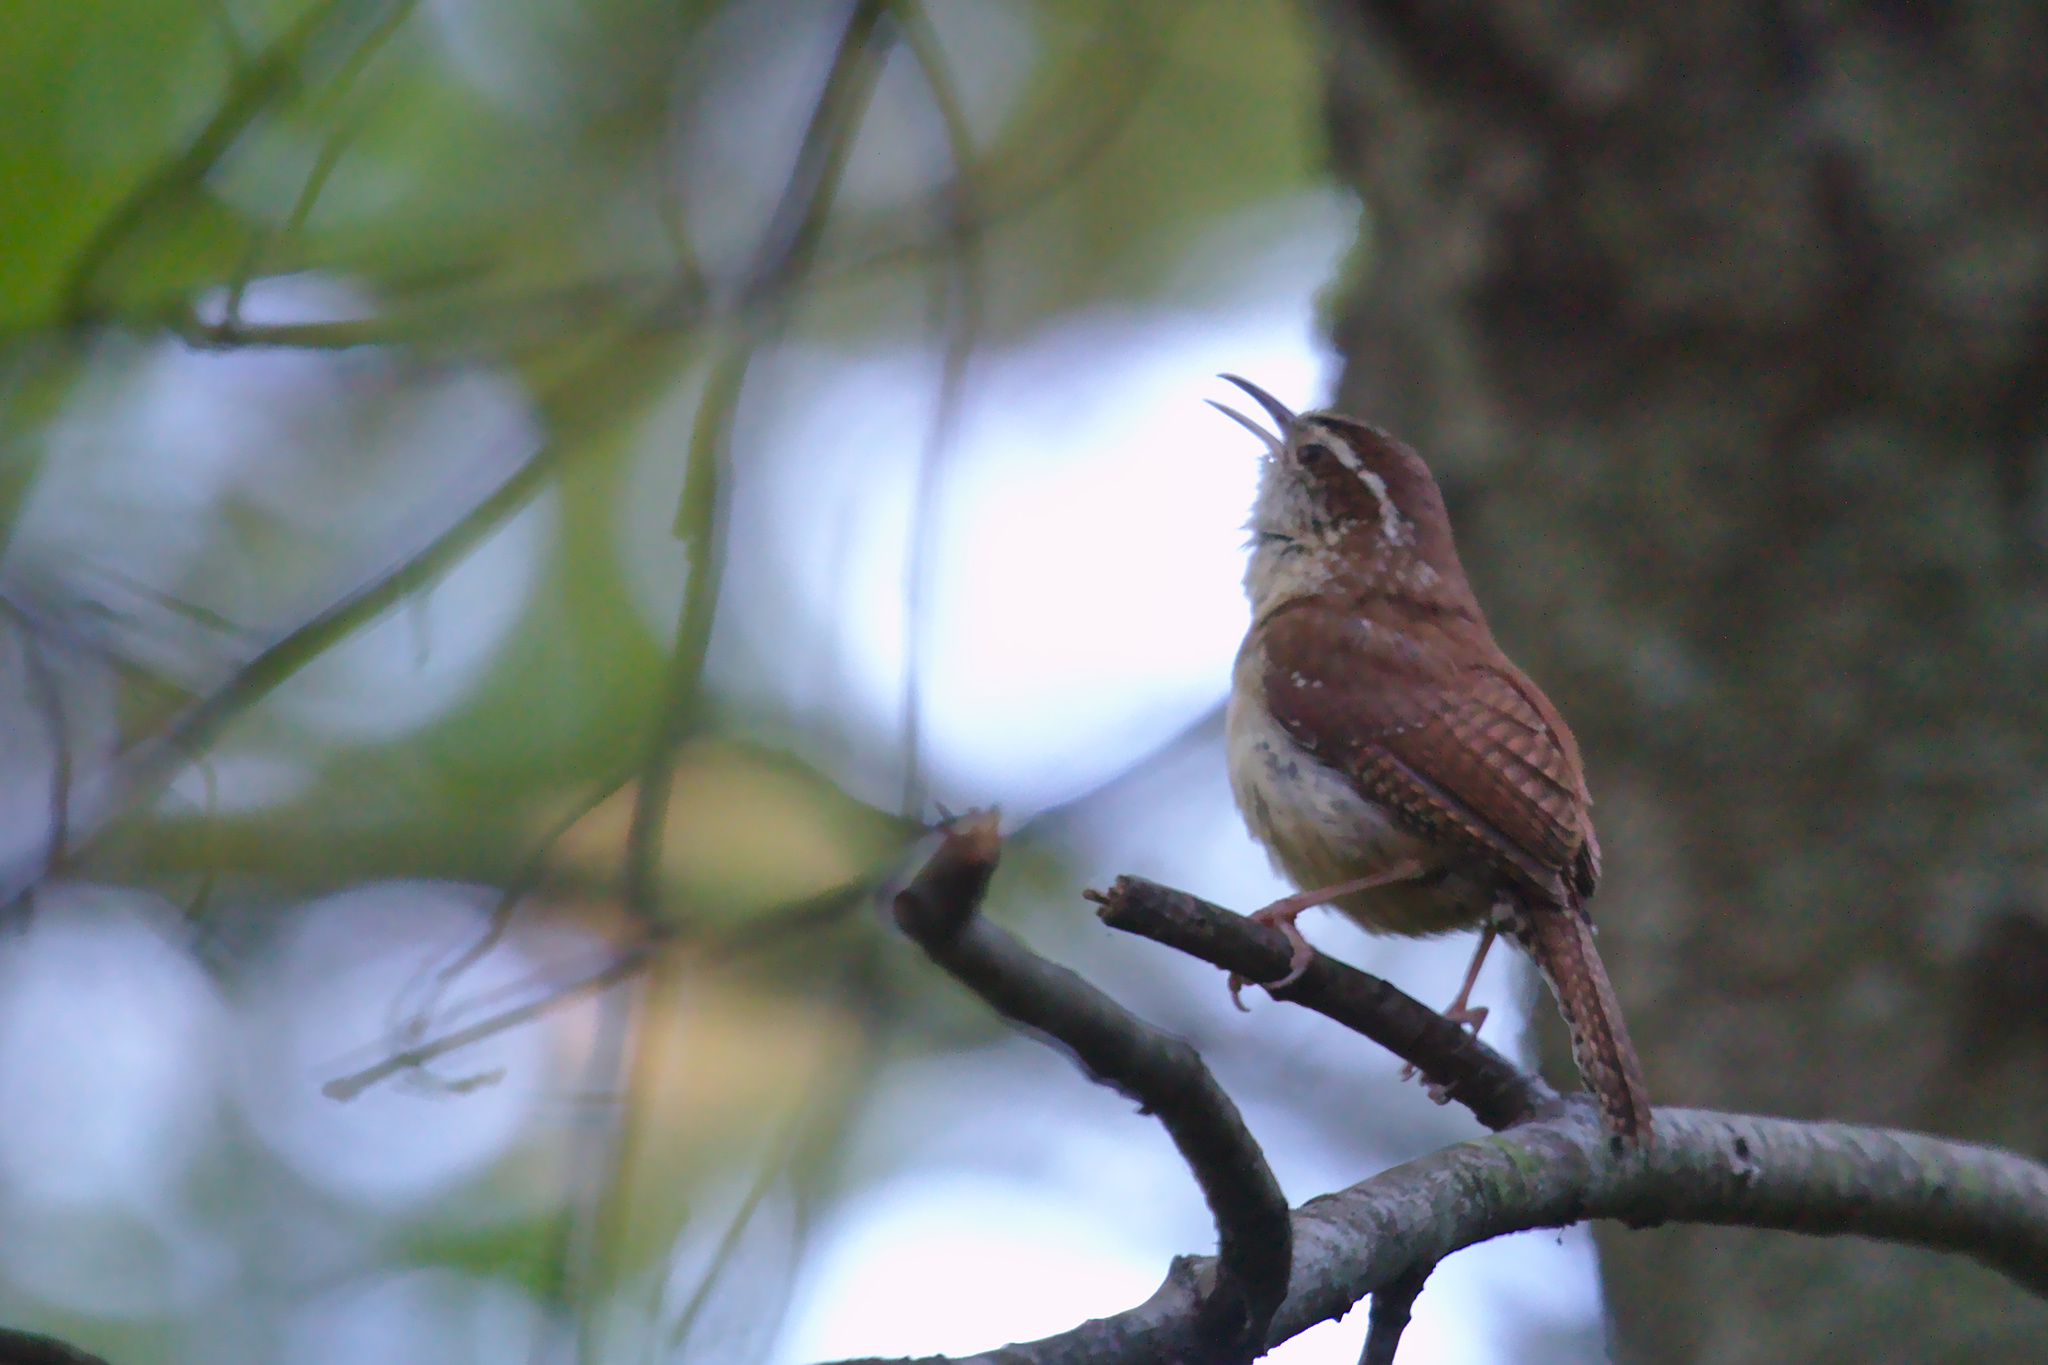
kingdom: Animalia
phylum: Chordata
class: Aves
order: Passeriformes
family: Troglodytidae
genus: Thryothorus
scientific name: Thryothorus ludovicianus
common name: Carolina wren
